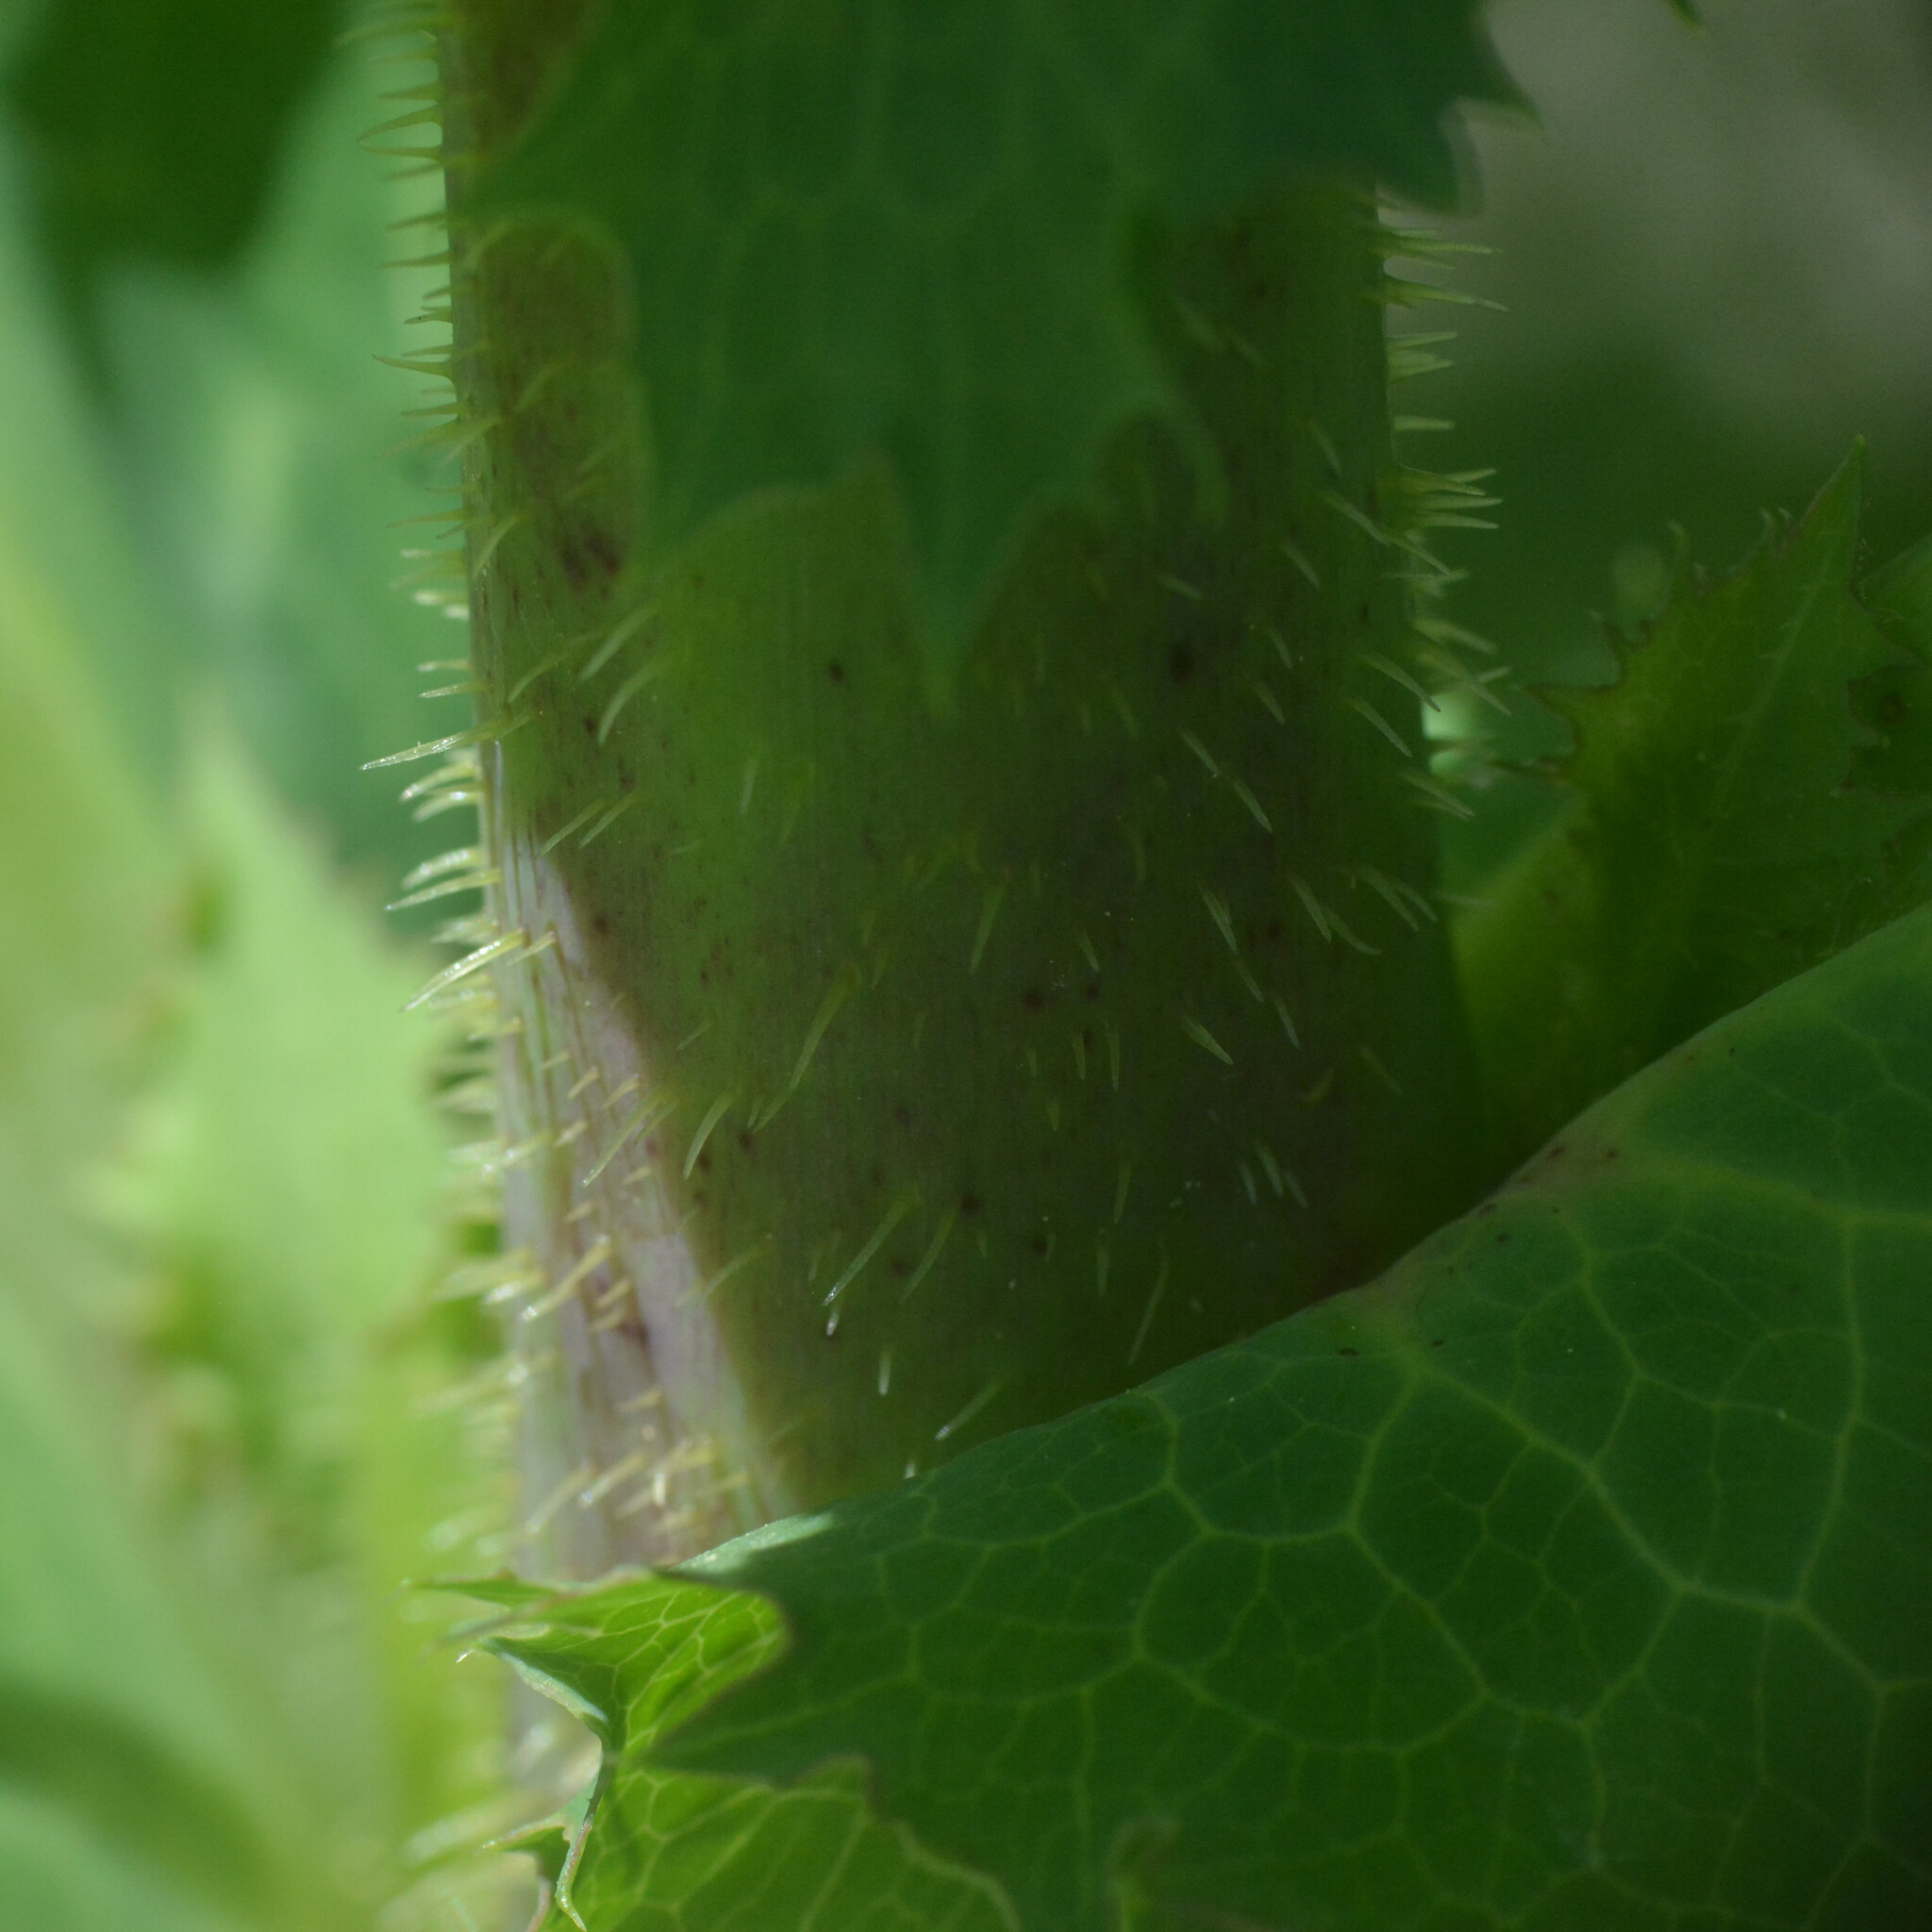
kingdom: Plantae
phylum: Tracheophyta
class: Magnoliopsida
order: Asterales
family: Asteraceae
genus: Lactuca
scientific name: Lactuca virosa
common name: Great lettuce
